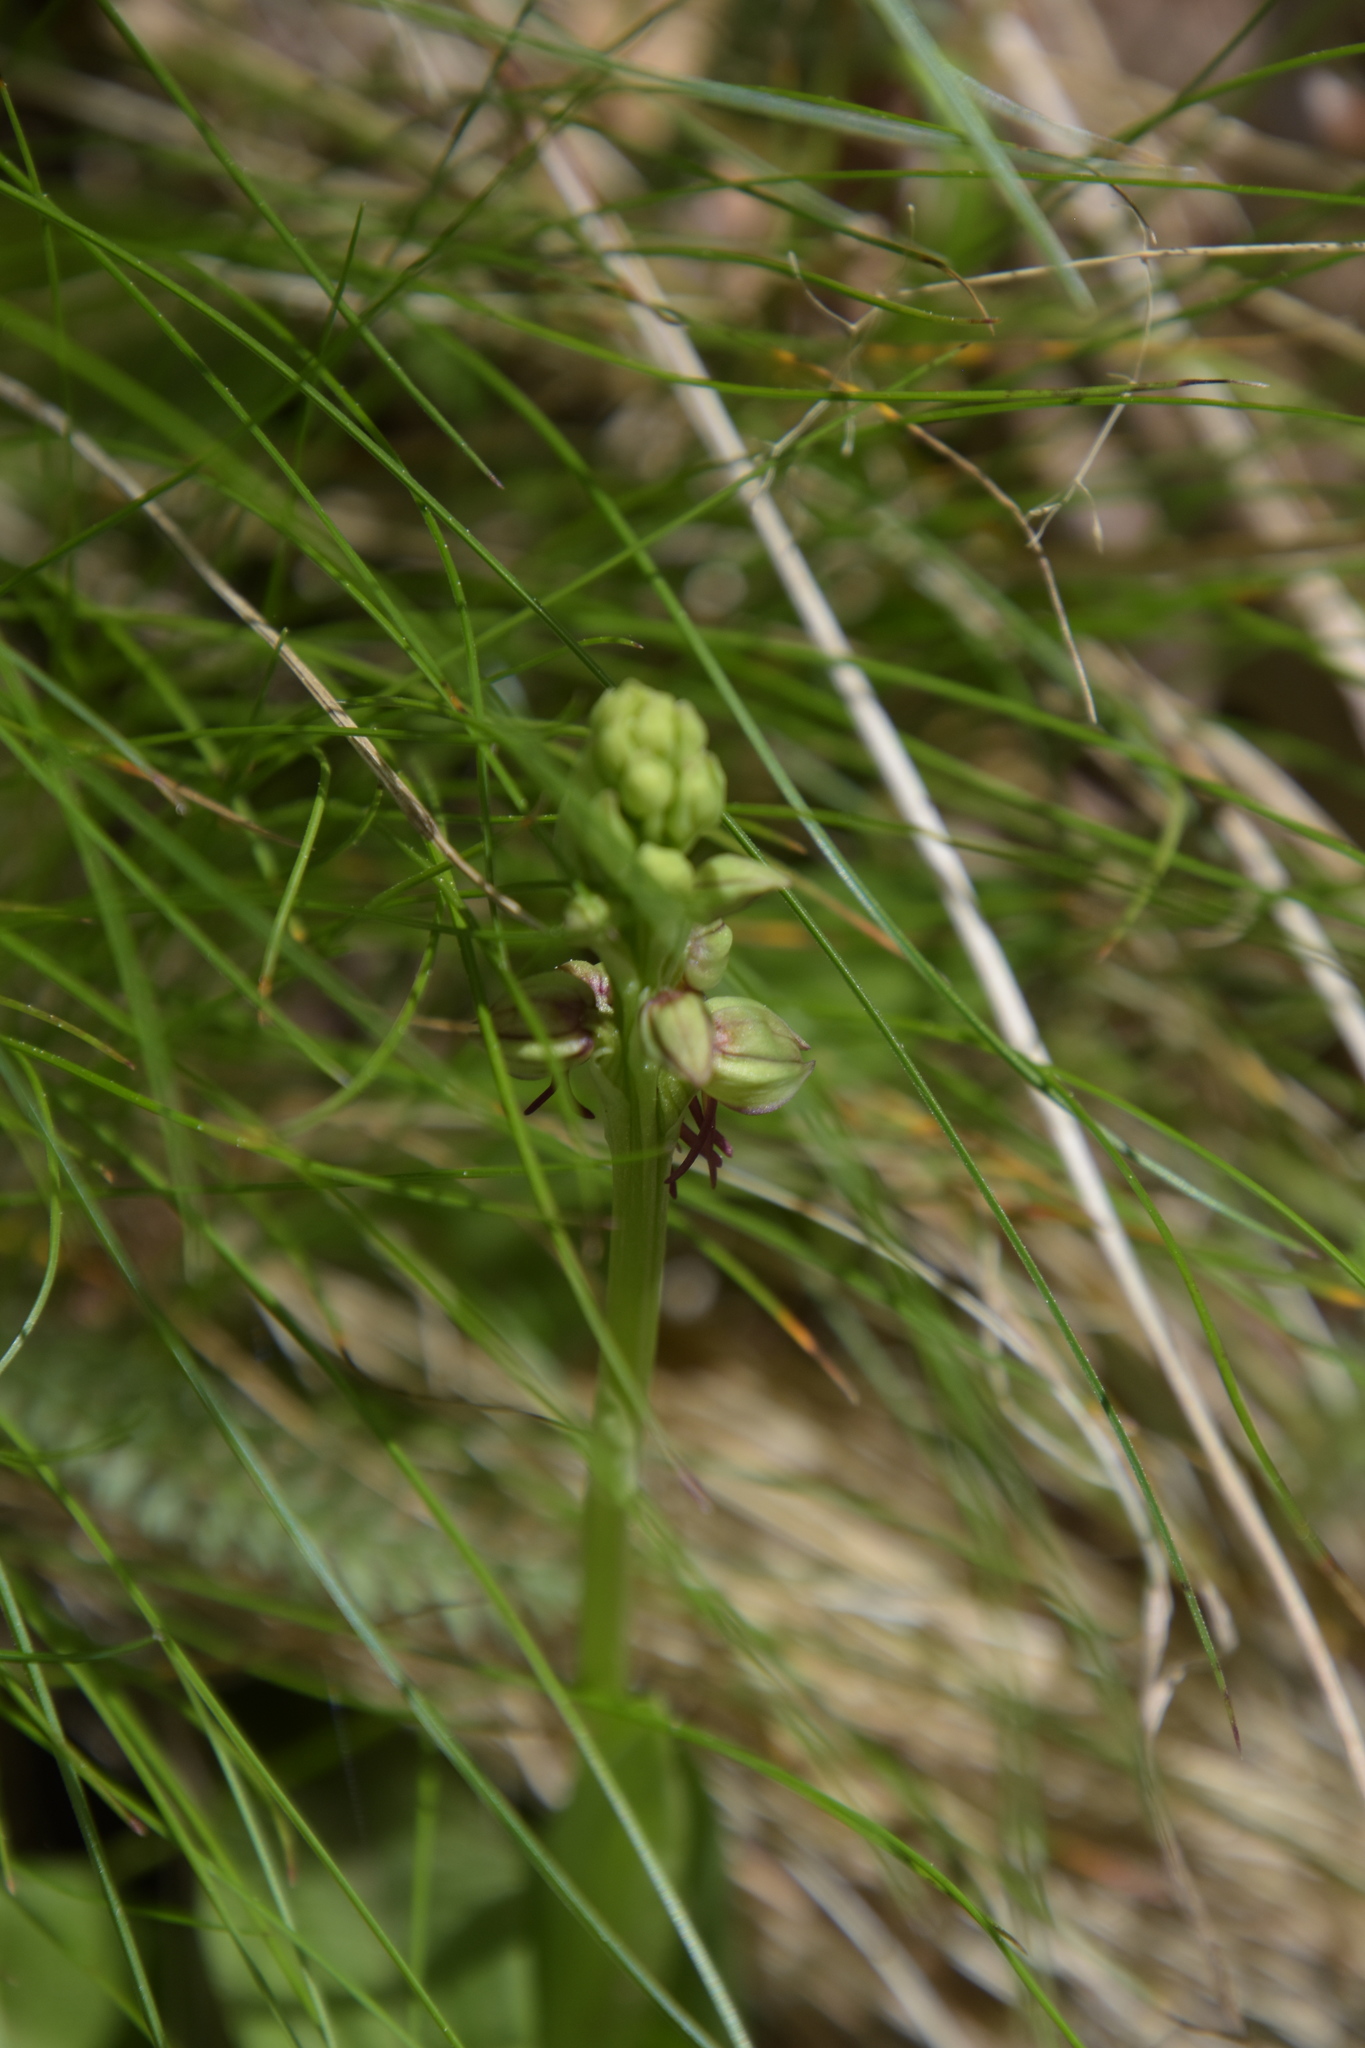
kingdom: Plantae
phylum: Tracheophyta
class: Liliopsida
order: Asparagales
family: Orchidaceae
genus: Orchis
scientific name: Orchis anthropophora
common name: Man orchid
